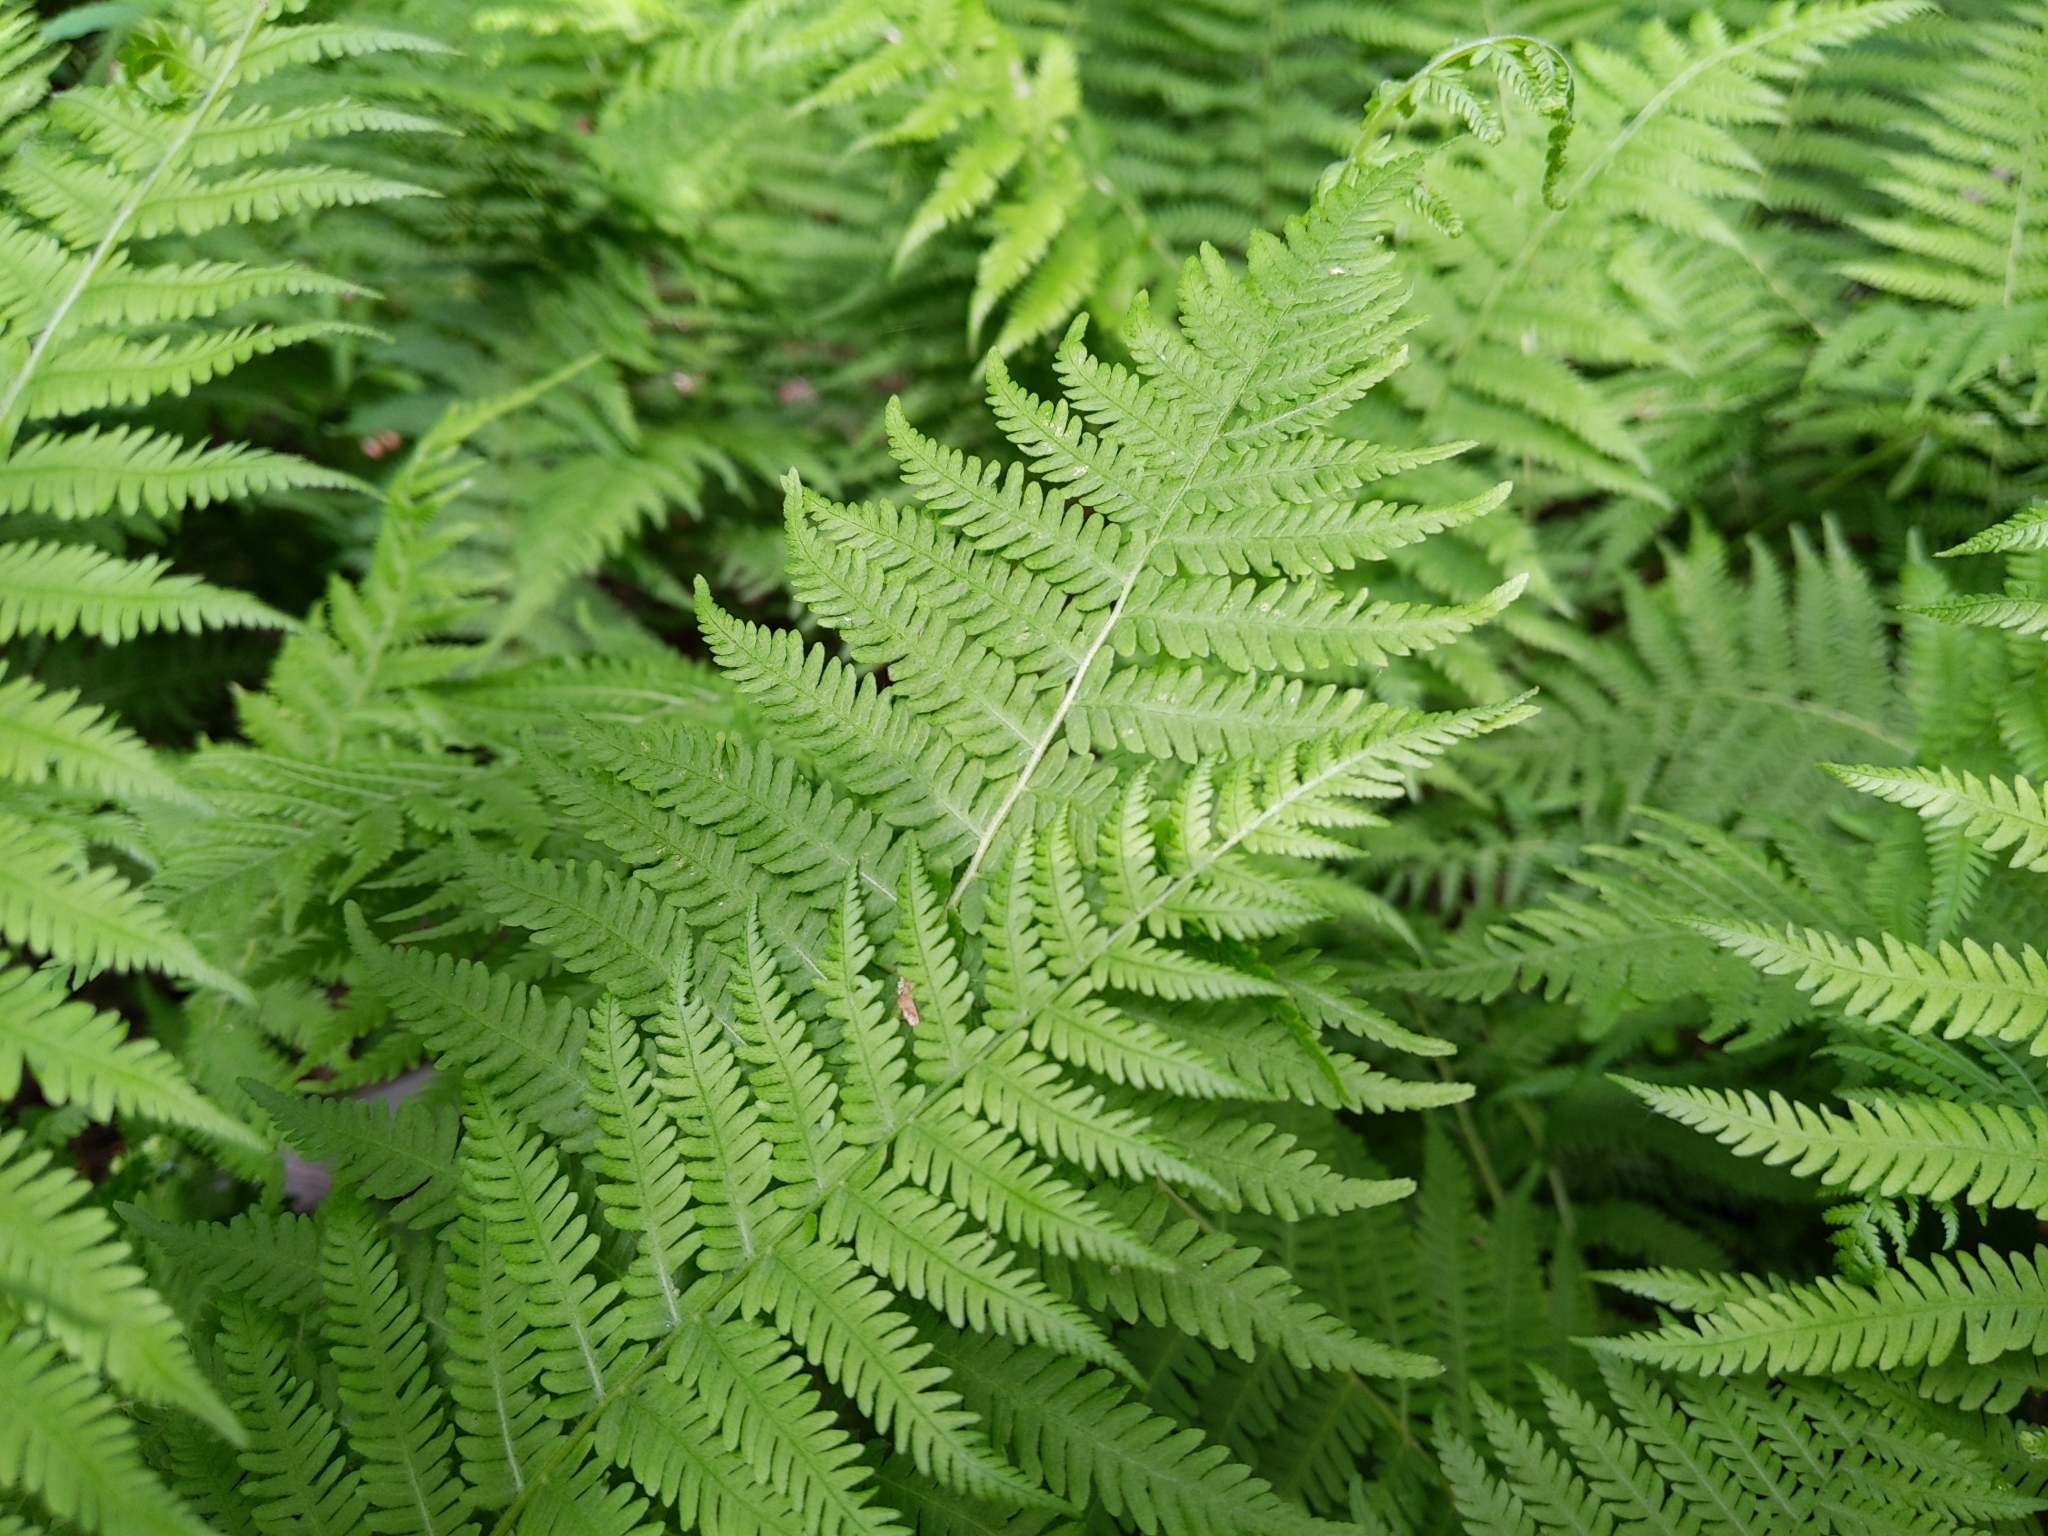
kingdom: Plantae
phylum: Tracheophyta
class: Polypodiopsida
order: Polypodiales
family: Thelypteridaceae
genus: Amauropelta
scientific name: Amauropelta noveboracensis
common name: New york fern
